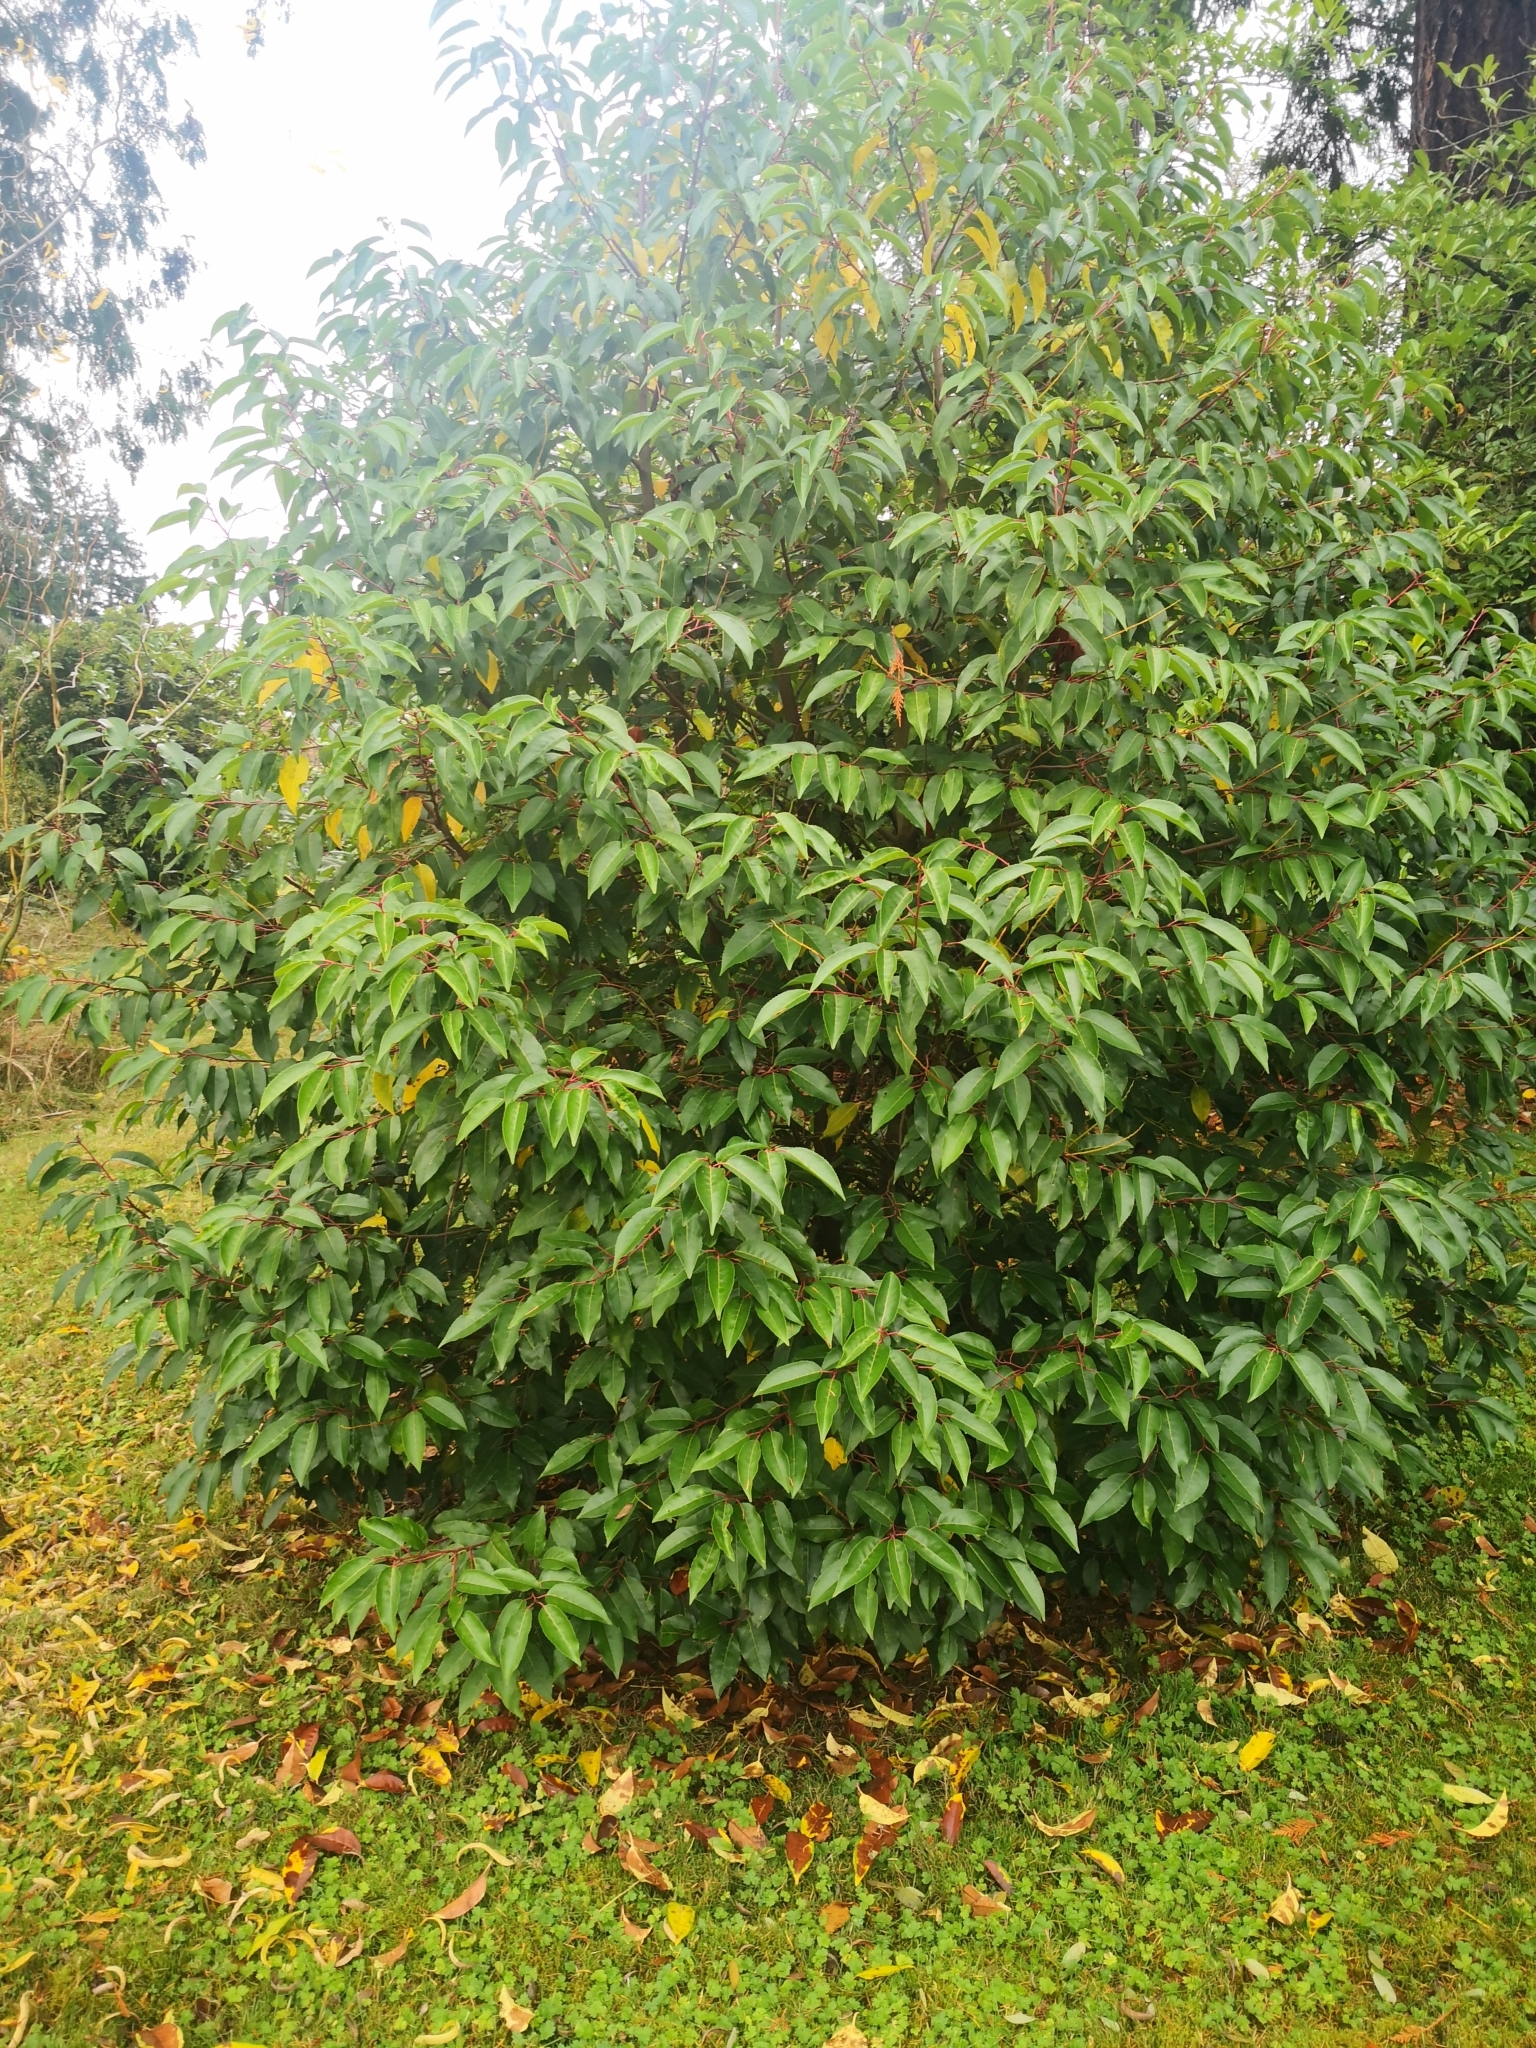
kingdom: Plantae
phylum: Tracheophyta
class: Magnoliopsida
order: Rosales
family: Rosaceae
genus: Prunus
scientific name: Prunus lusitanica
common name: Portugal laurel
